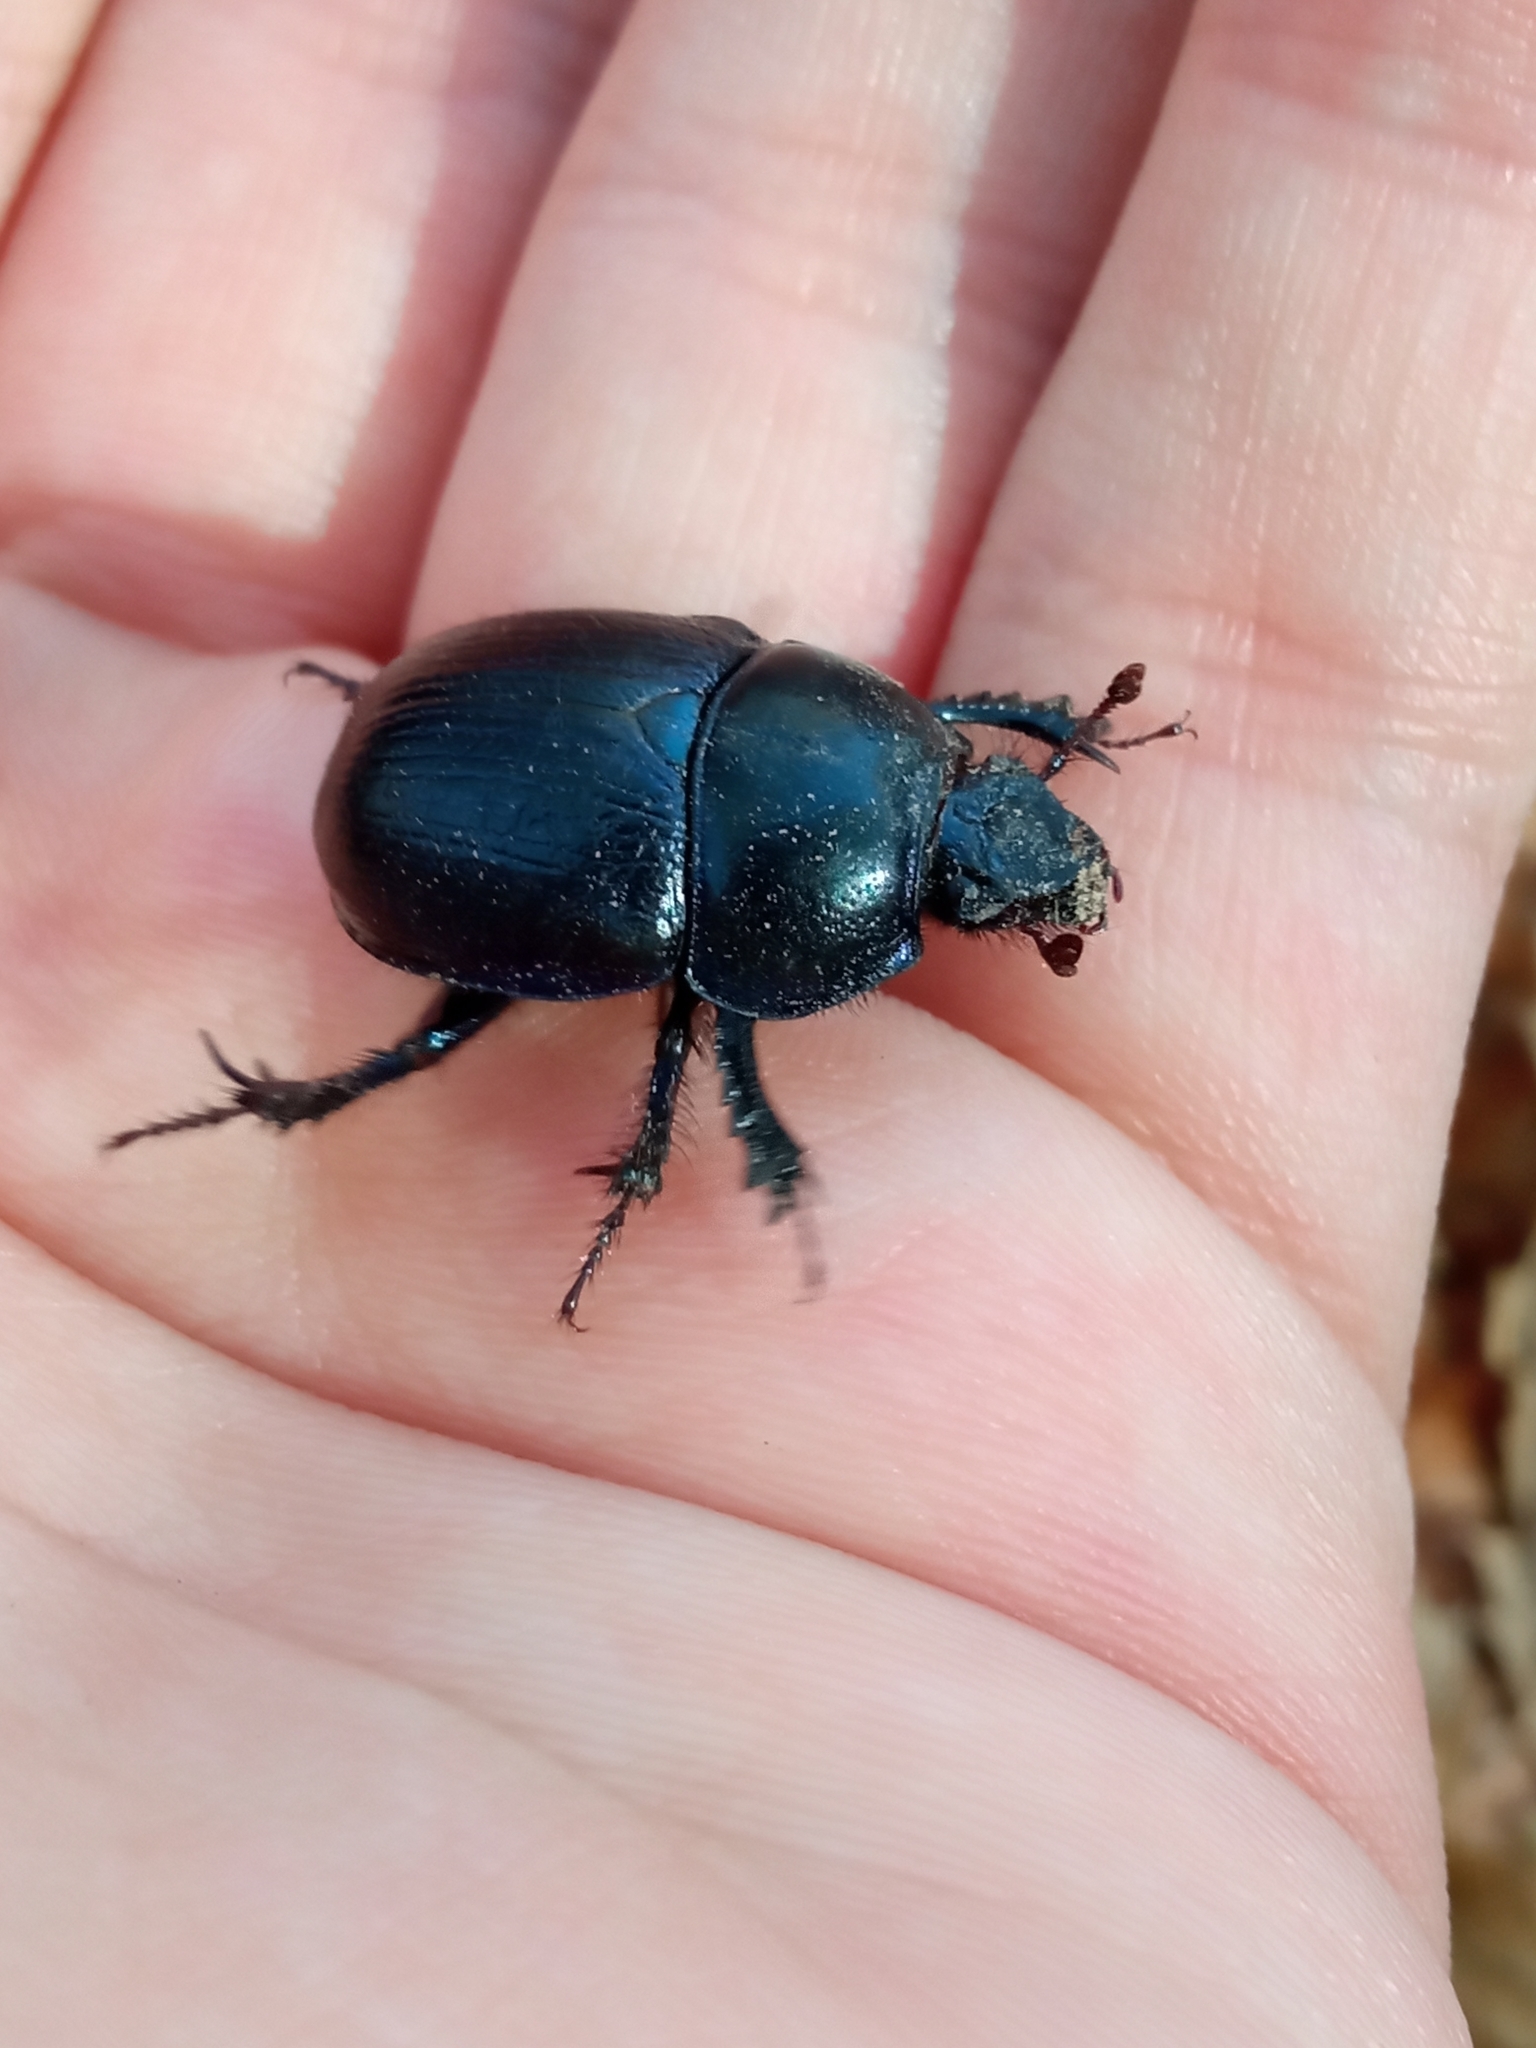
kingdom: Animalia
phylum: Arthropoda
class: Insecta
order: Coleoptera
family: Geotrupidae
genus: Anoplotrupes
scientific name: Anoplotrupes stercorosus
